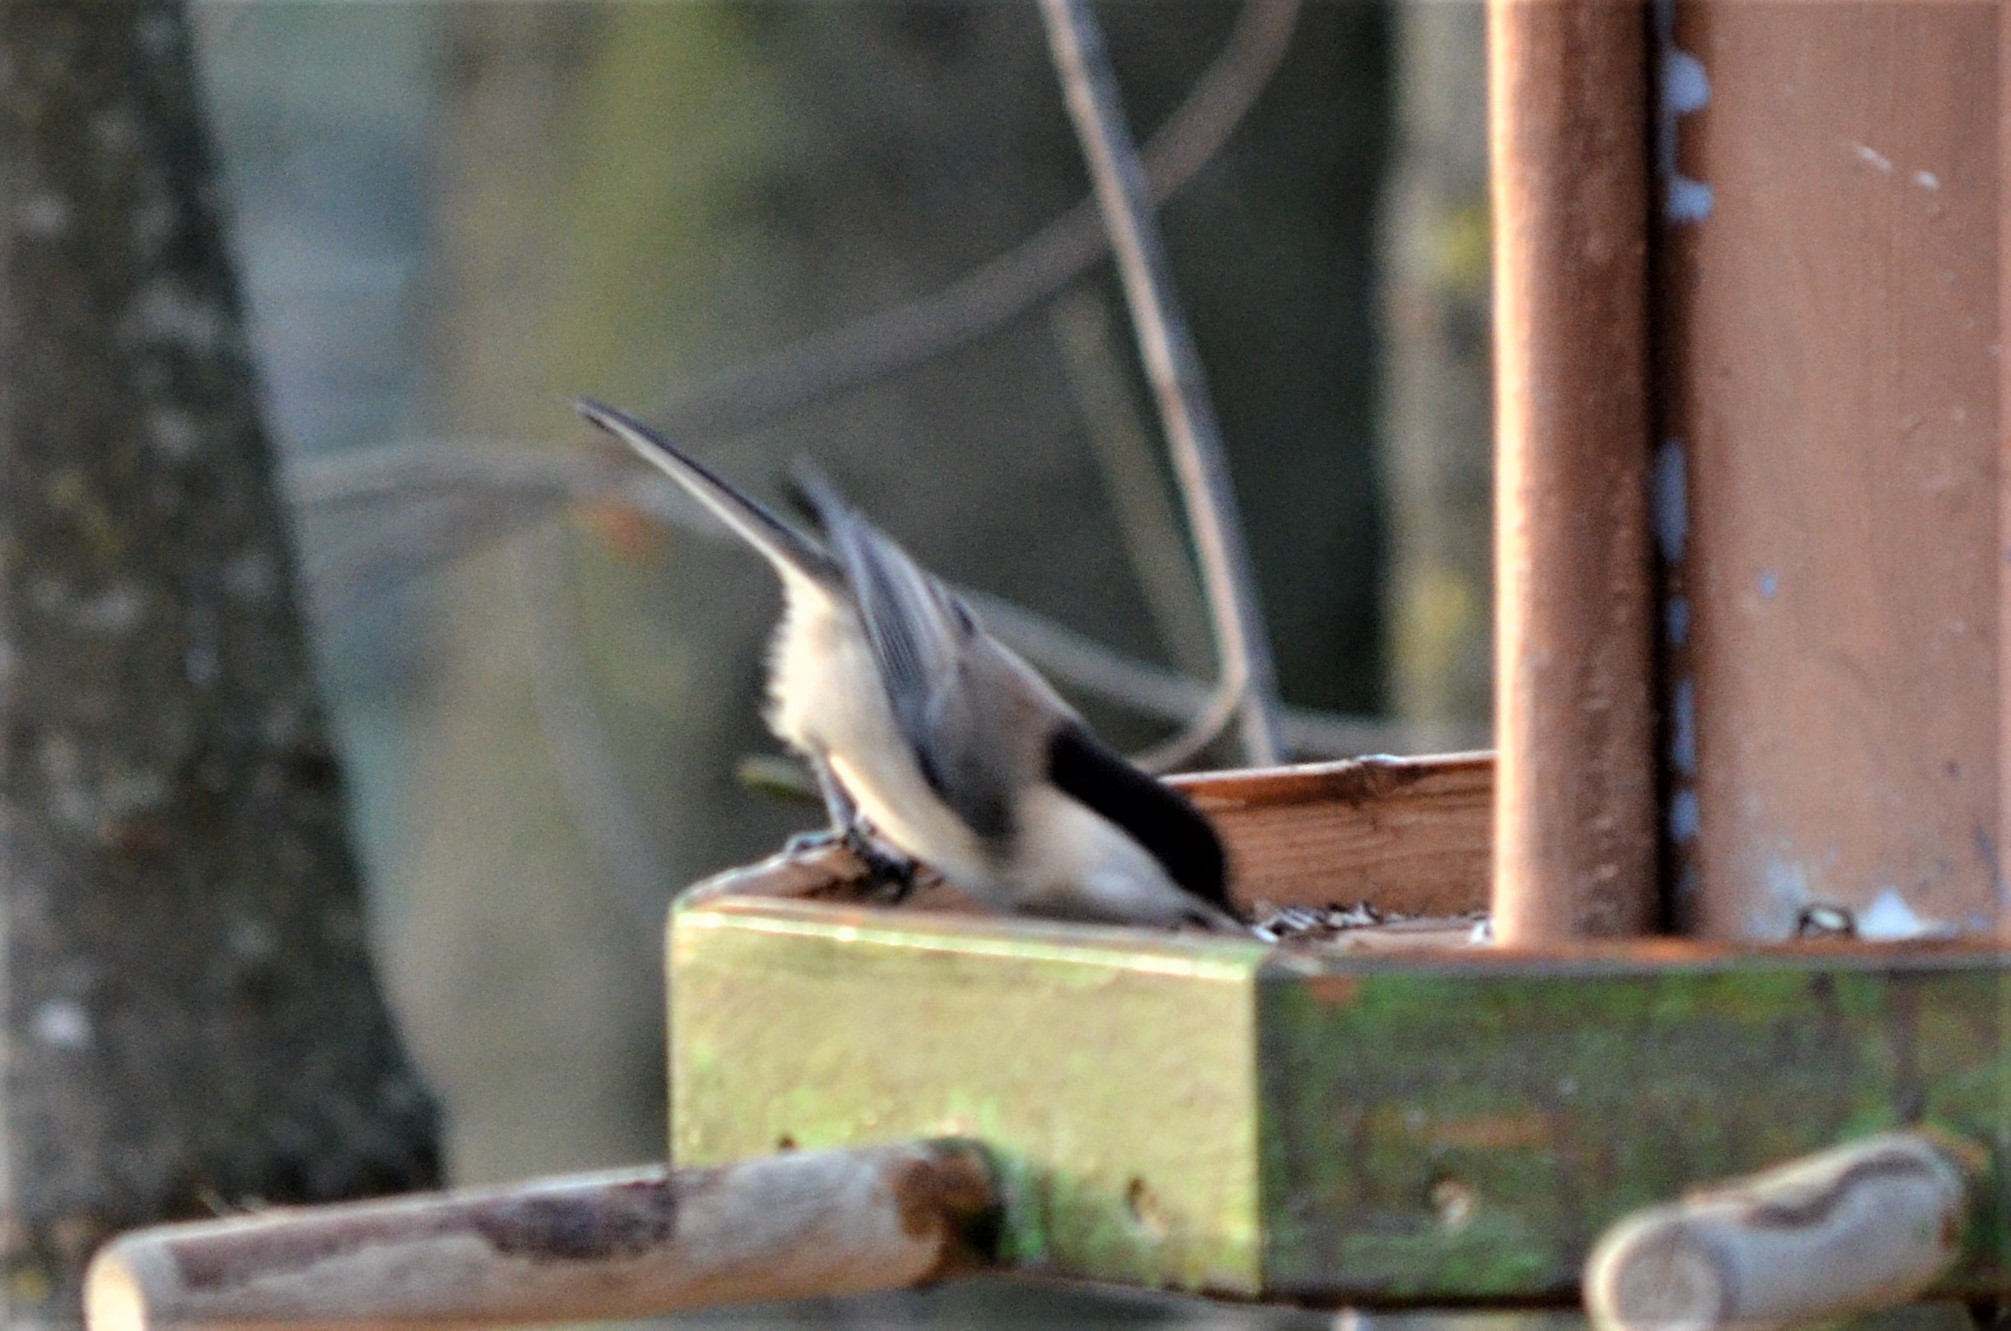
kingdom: Animalia
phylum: Chordata
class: Aves
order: Passeriformes
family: Paridae
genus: Poecile
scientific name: Poecile montanus
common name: Willow tit
